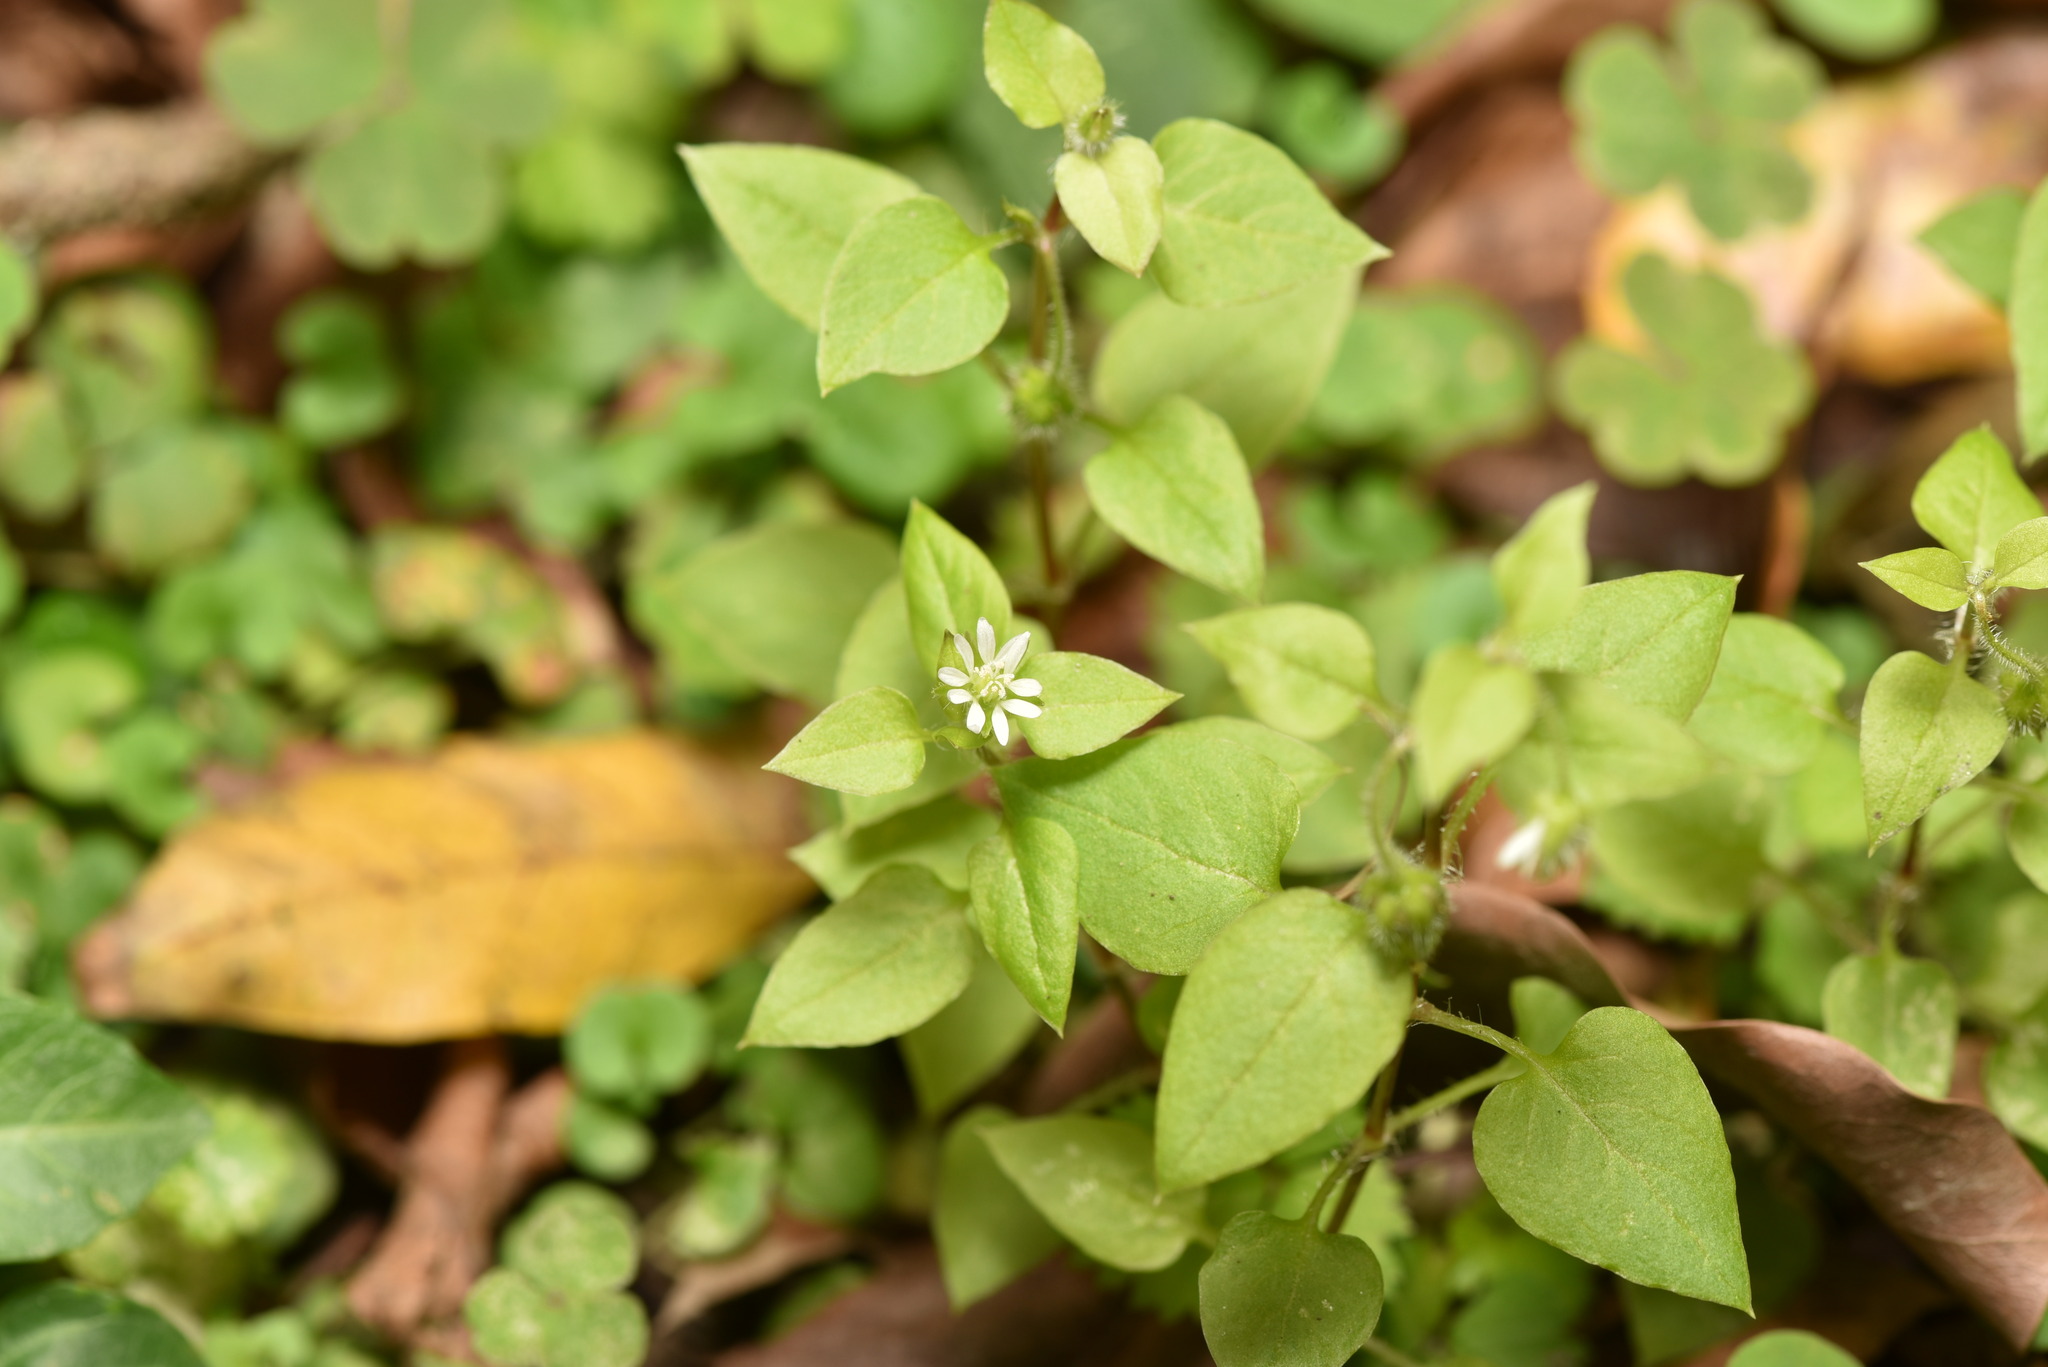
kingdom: Plantae
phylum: Tracheophyta
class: Magnoliopsida
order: Caryophyllales
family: Caryophyllaceae
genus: Stellaria
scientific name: Stellaria aquatica
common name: Water chickweed
